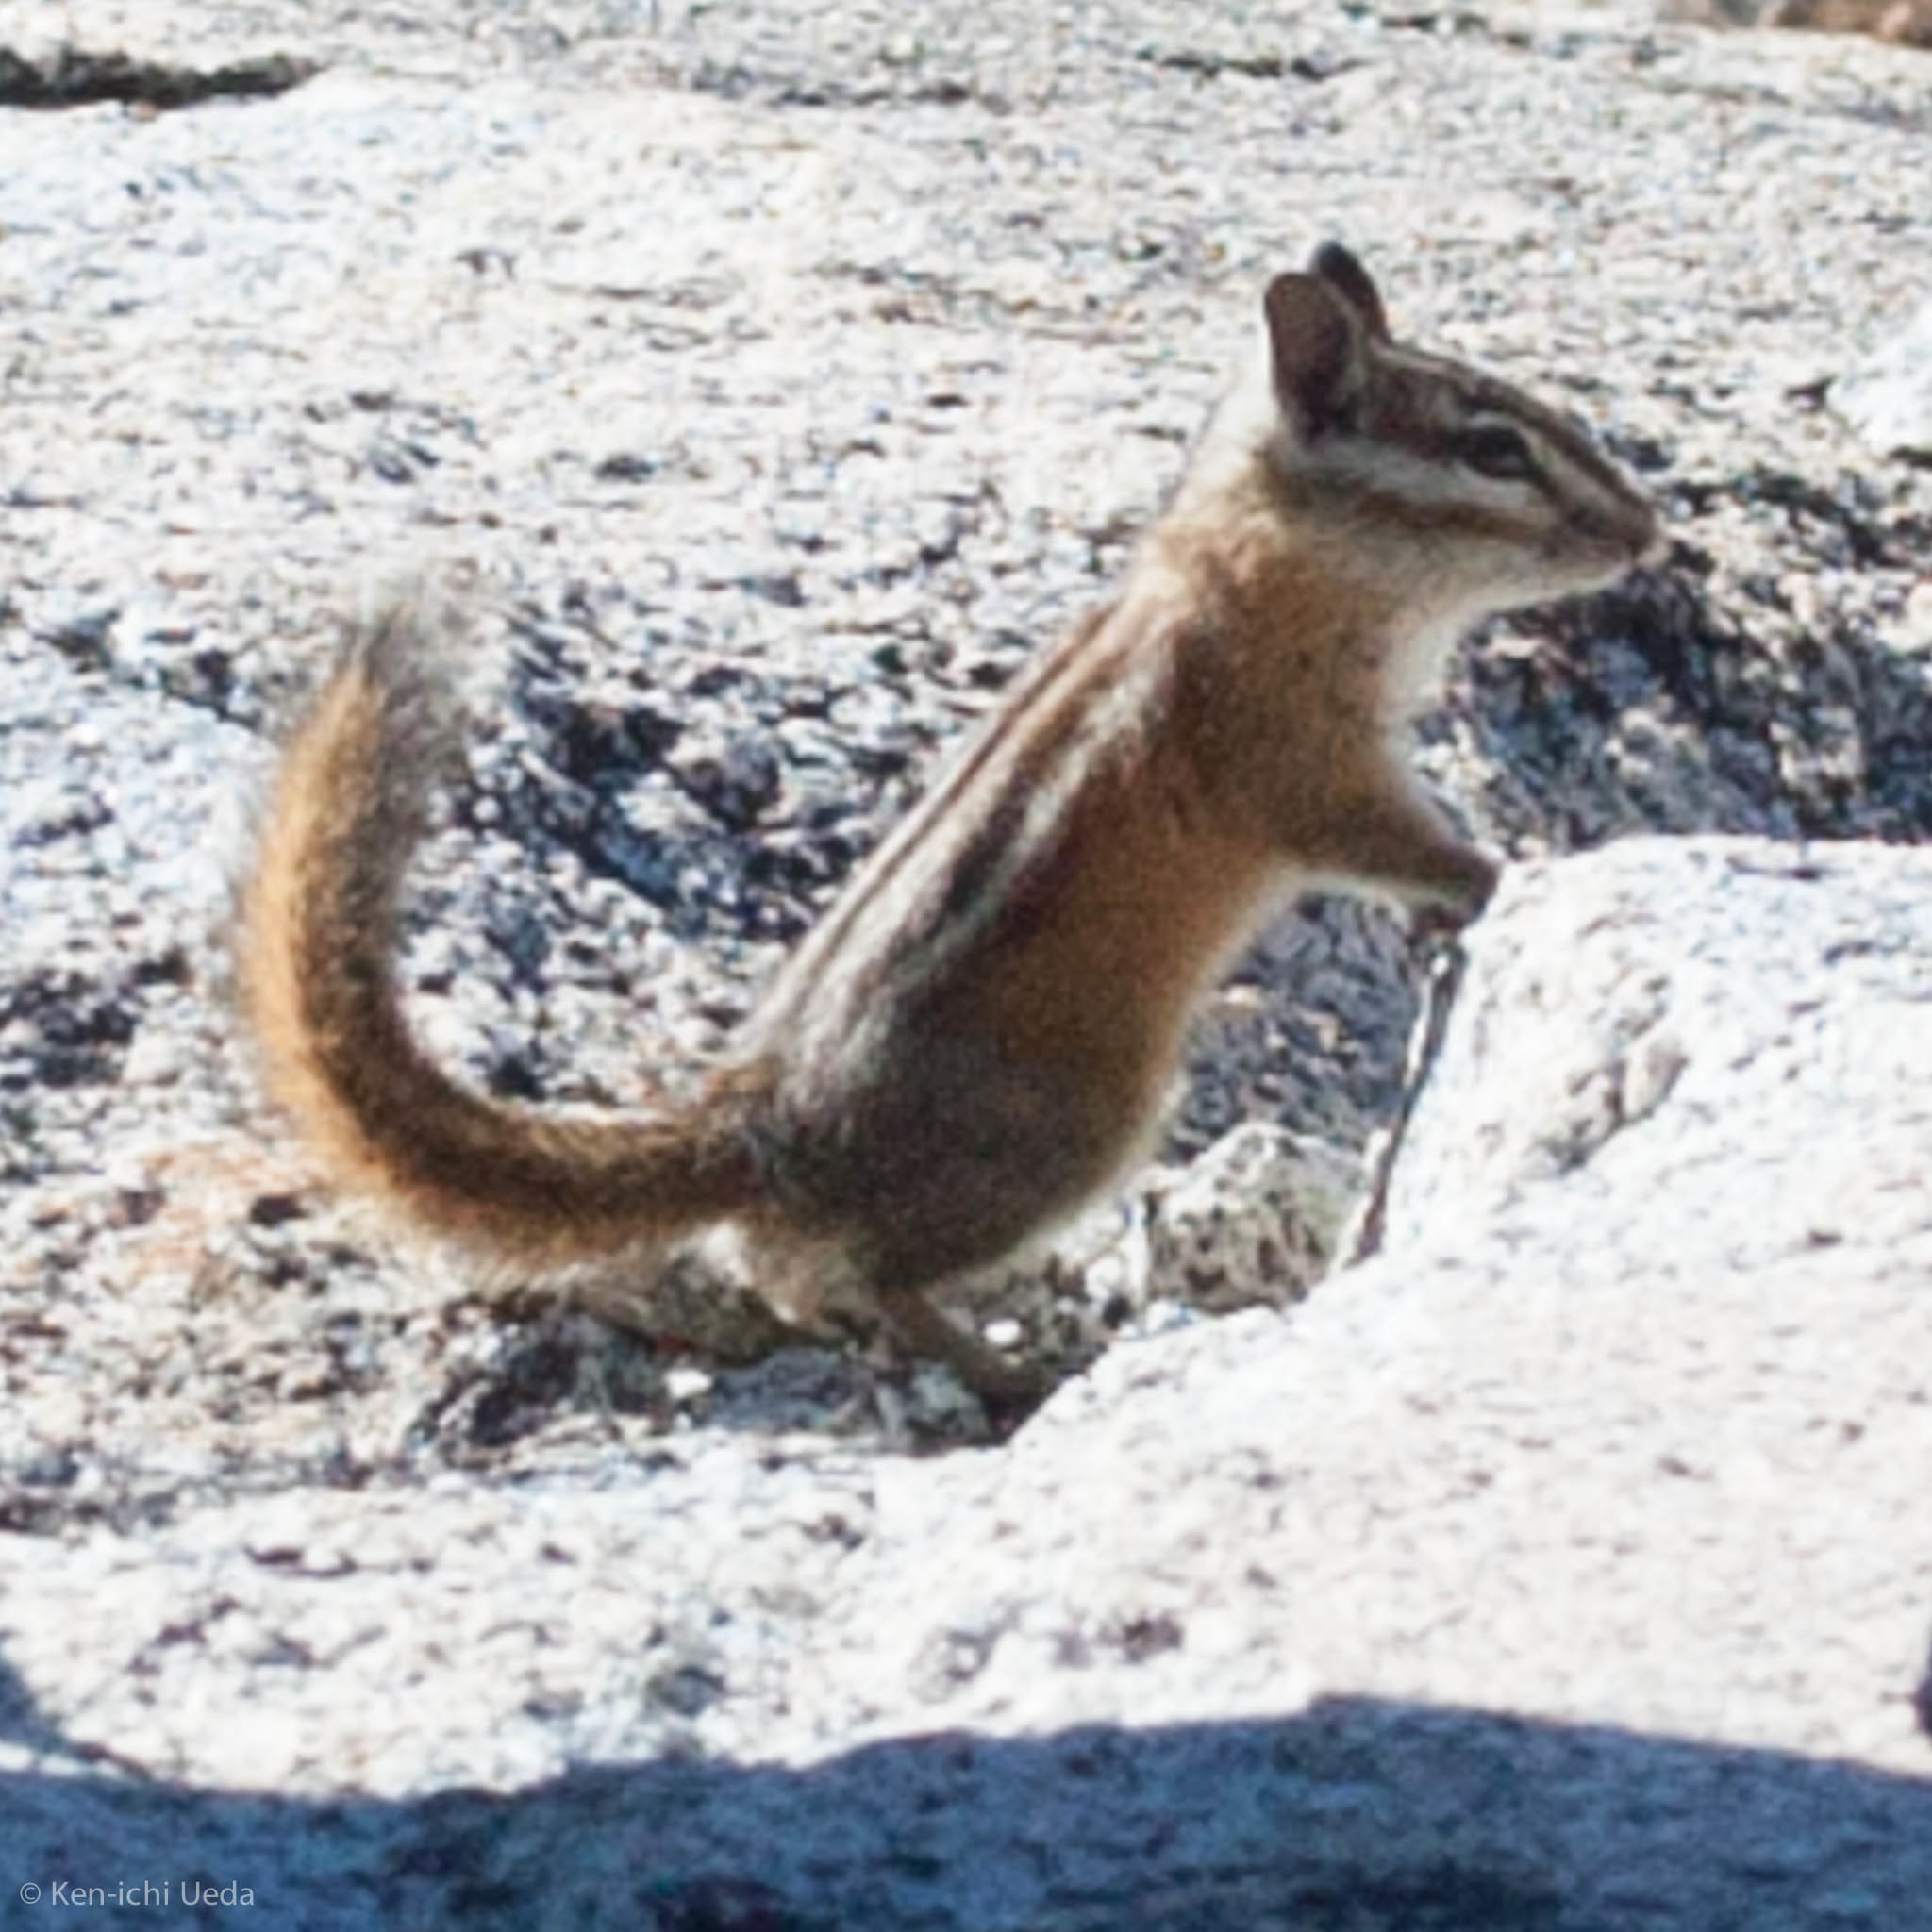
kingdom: Animalia
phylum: Chordata
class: Mammalia
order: Rodentia
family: Sciuridae
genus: Tamias
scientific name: Tamias amoenus
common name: Yellow-pine chipmunk
